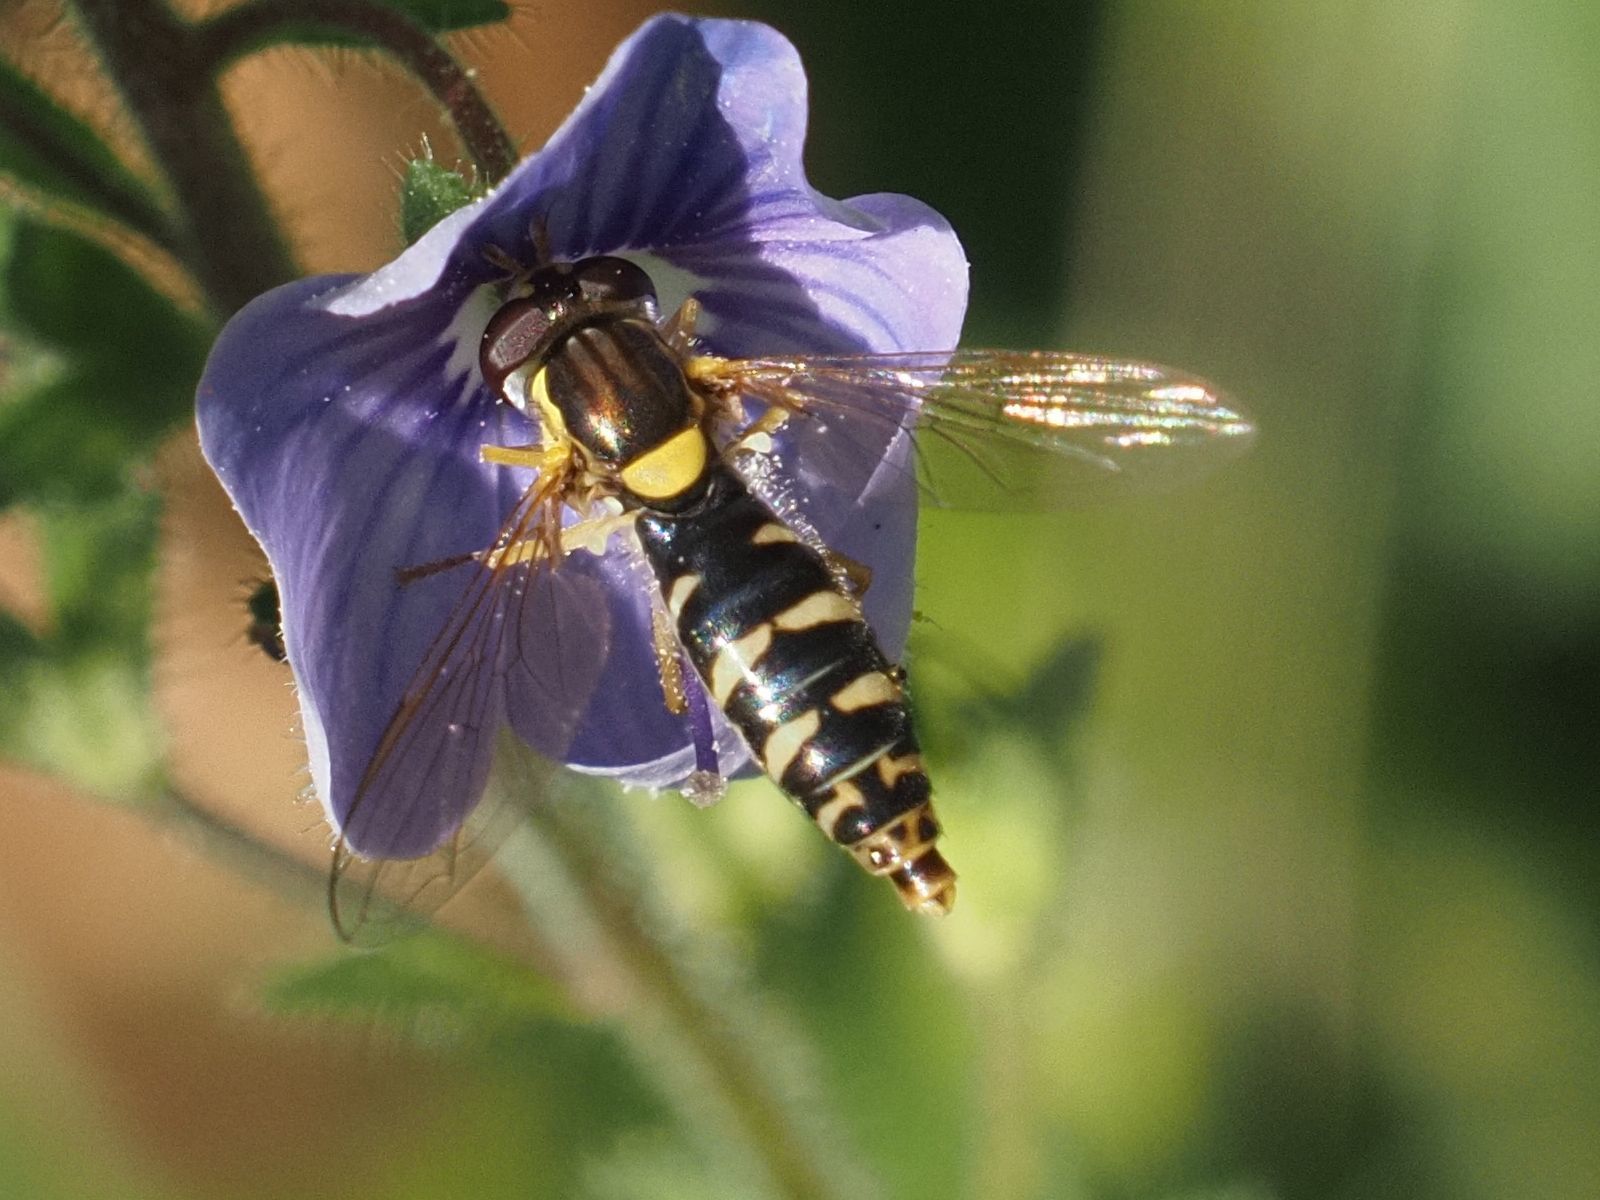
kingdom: Animalia
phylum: Arthropoda
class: Insecta
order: Diptera
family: Syrphidae
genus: Sphaerophoria
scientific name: Sphaerophoria
